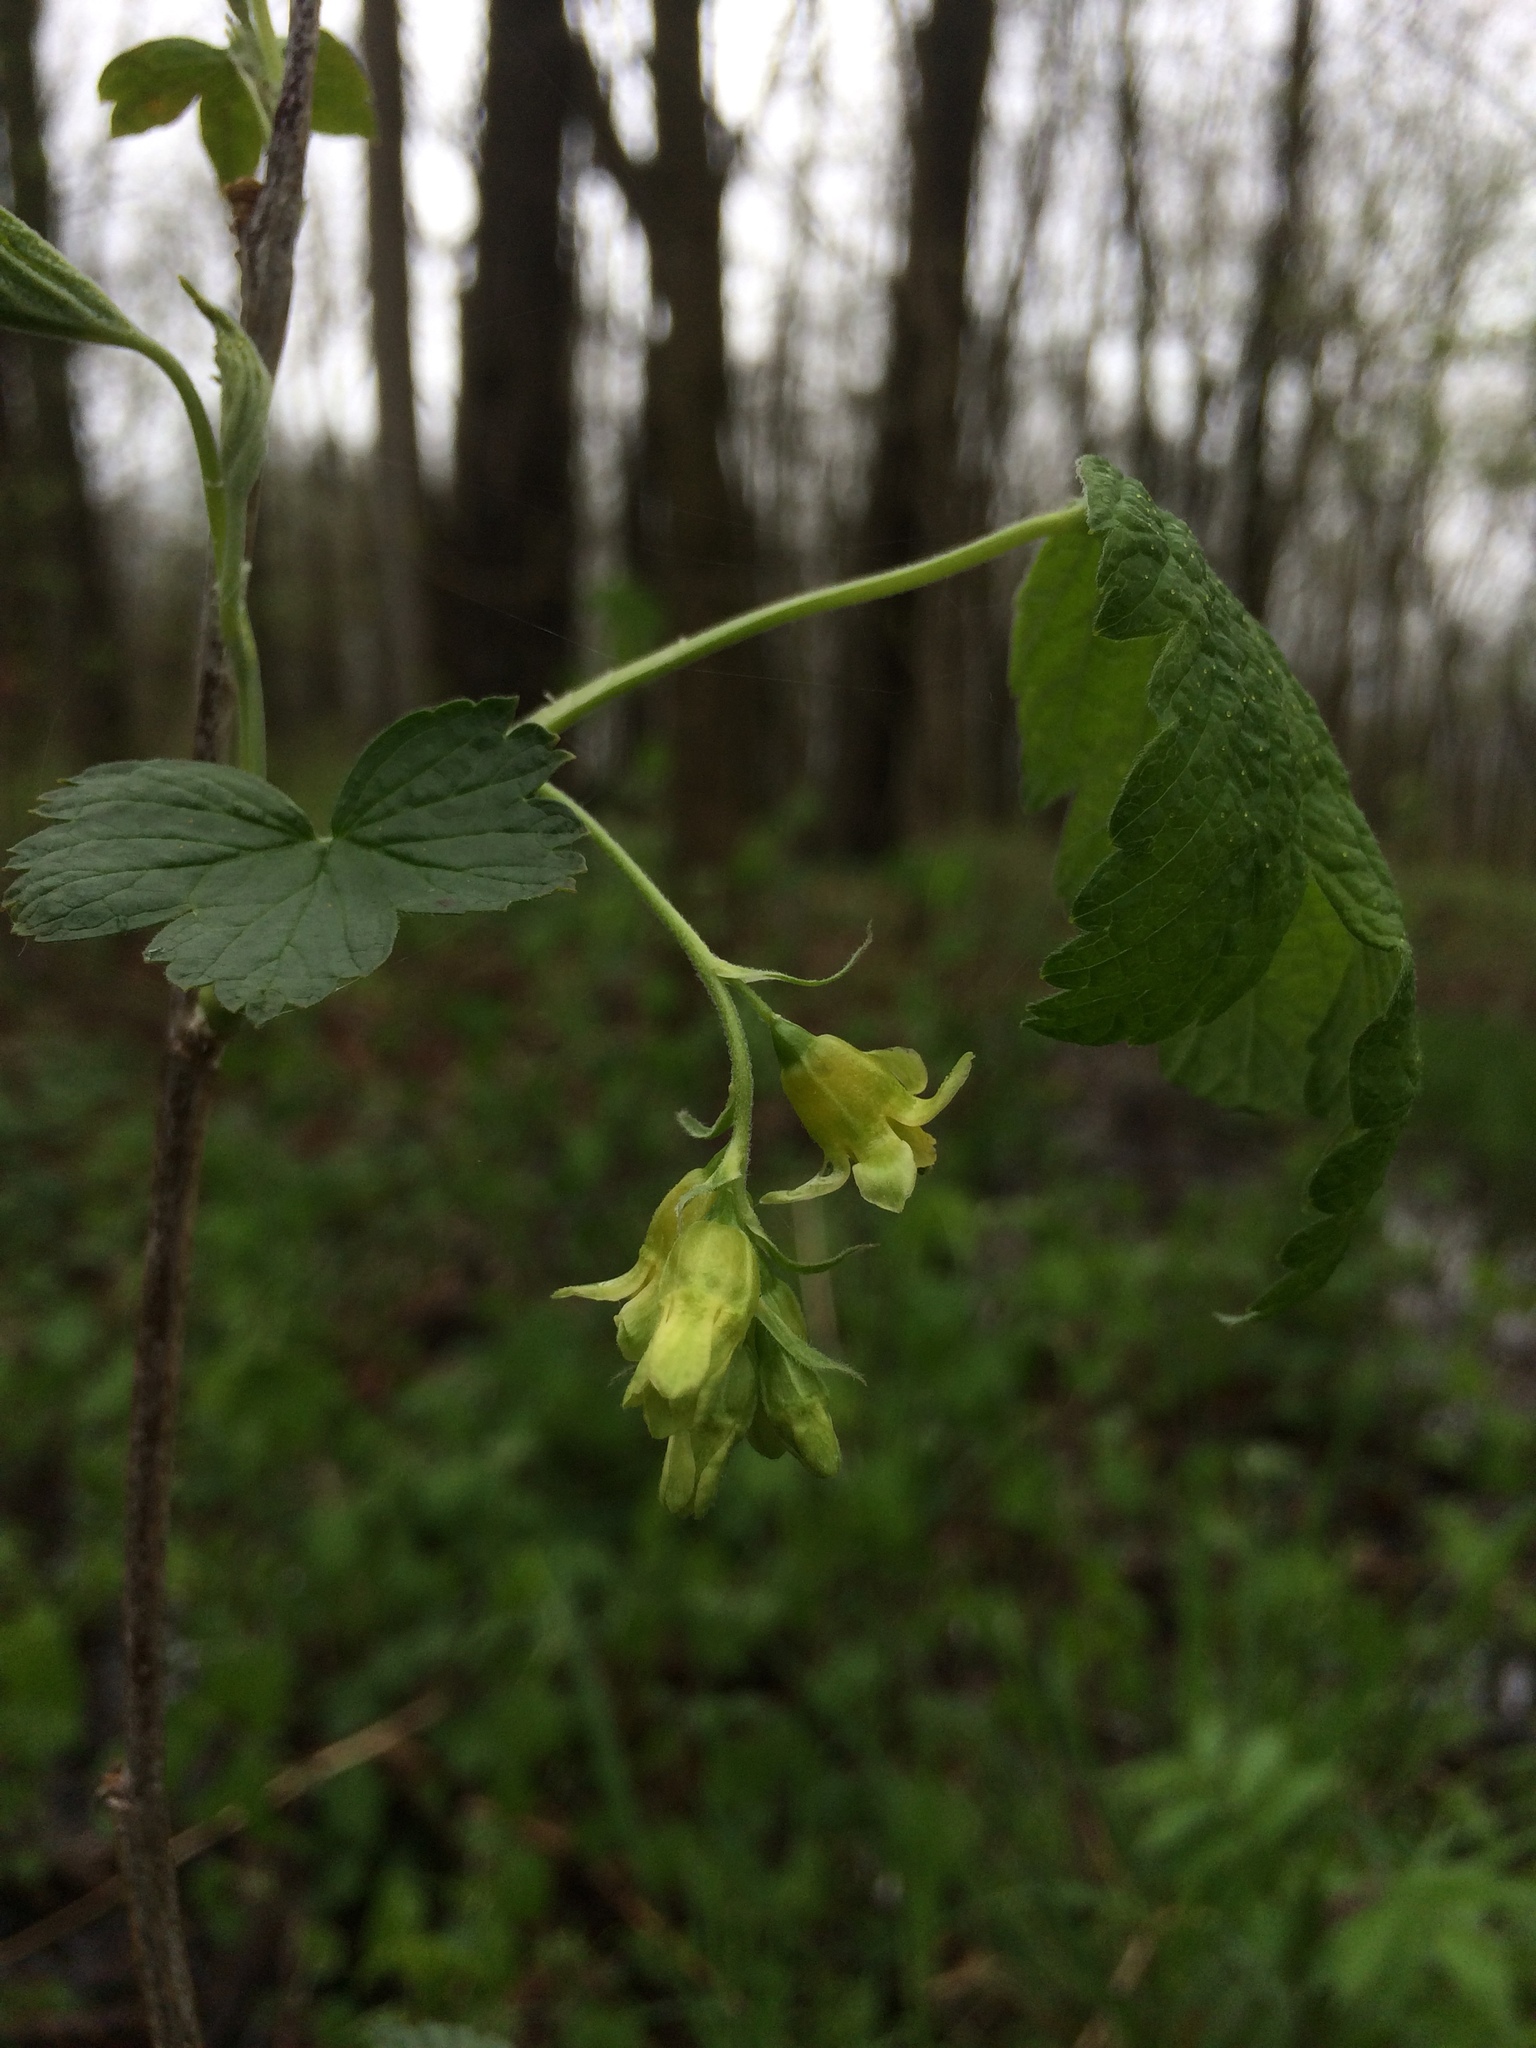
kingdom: Plantae
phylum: Tracheophyta
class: Magnoliopsida
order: Saxifragales
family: Grossulariaceae
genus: Ribes
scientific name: Ribes americanum
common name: American black currant
